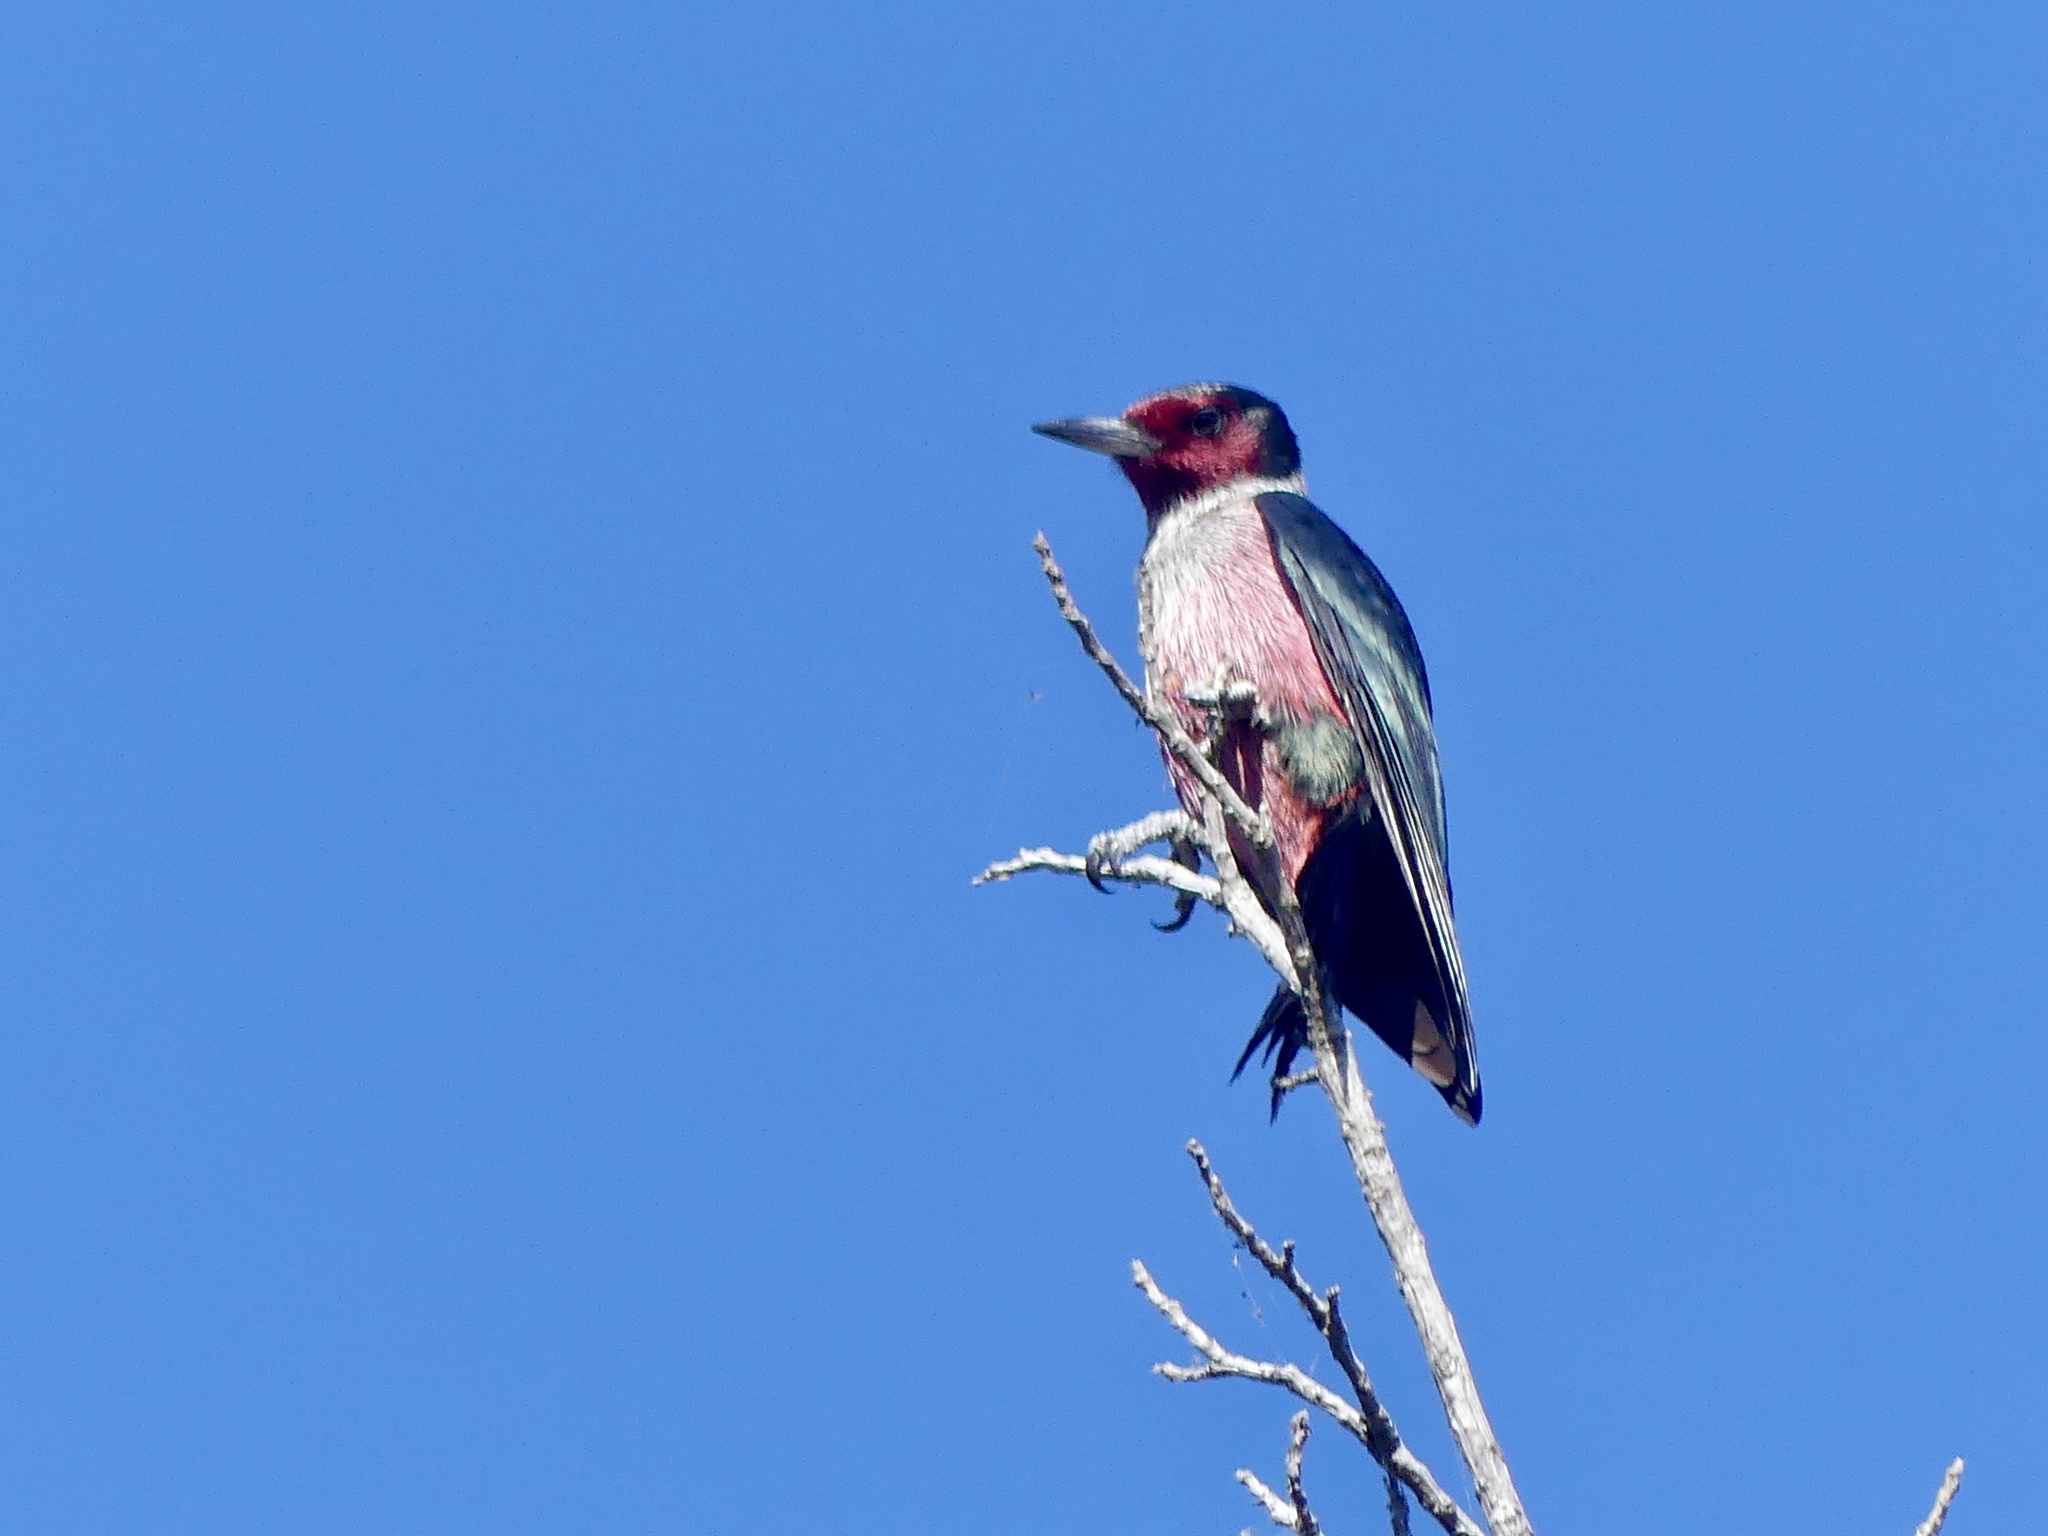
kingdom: Animalia
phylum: Chordata
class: Aves
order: Piciformes
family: Picidae
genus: Melanerpes
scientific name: Melanerpes lewis
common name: Lewis's woodpecker
